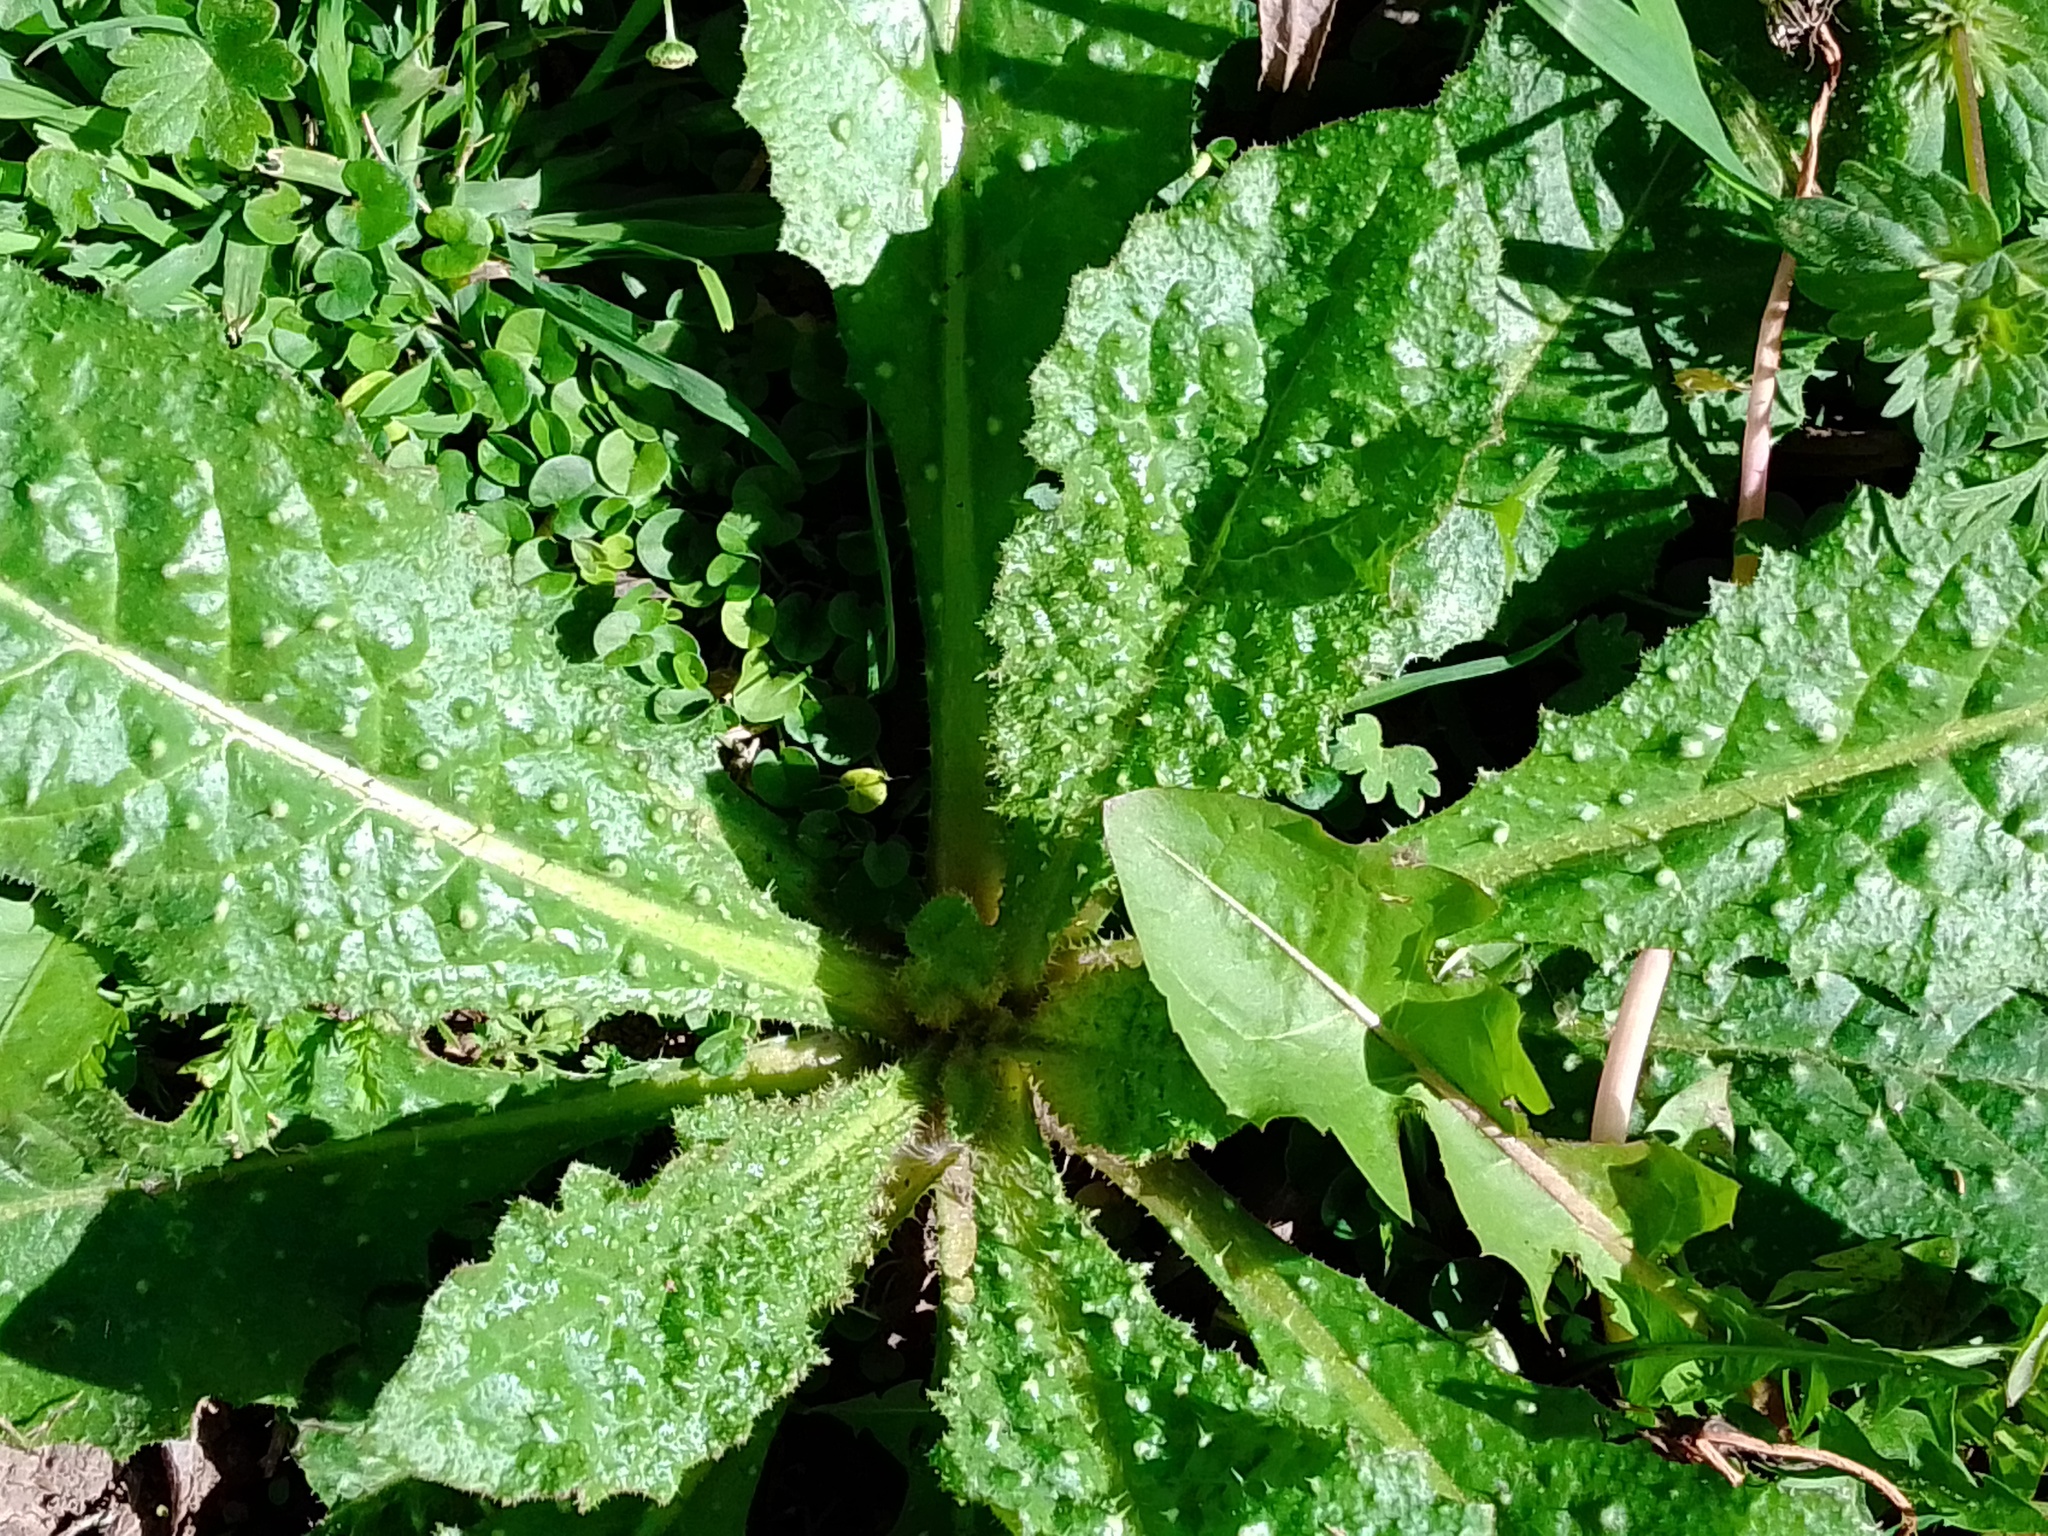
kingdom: Plantae
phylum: Tracheophyta
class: Magnoliopsida
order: Asterales
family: Asteraceae
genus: Helminthotheca
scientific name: Helminthotheca echioides
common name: Ox-tongue
